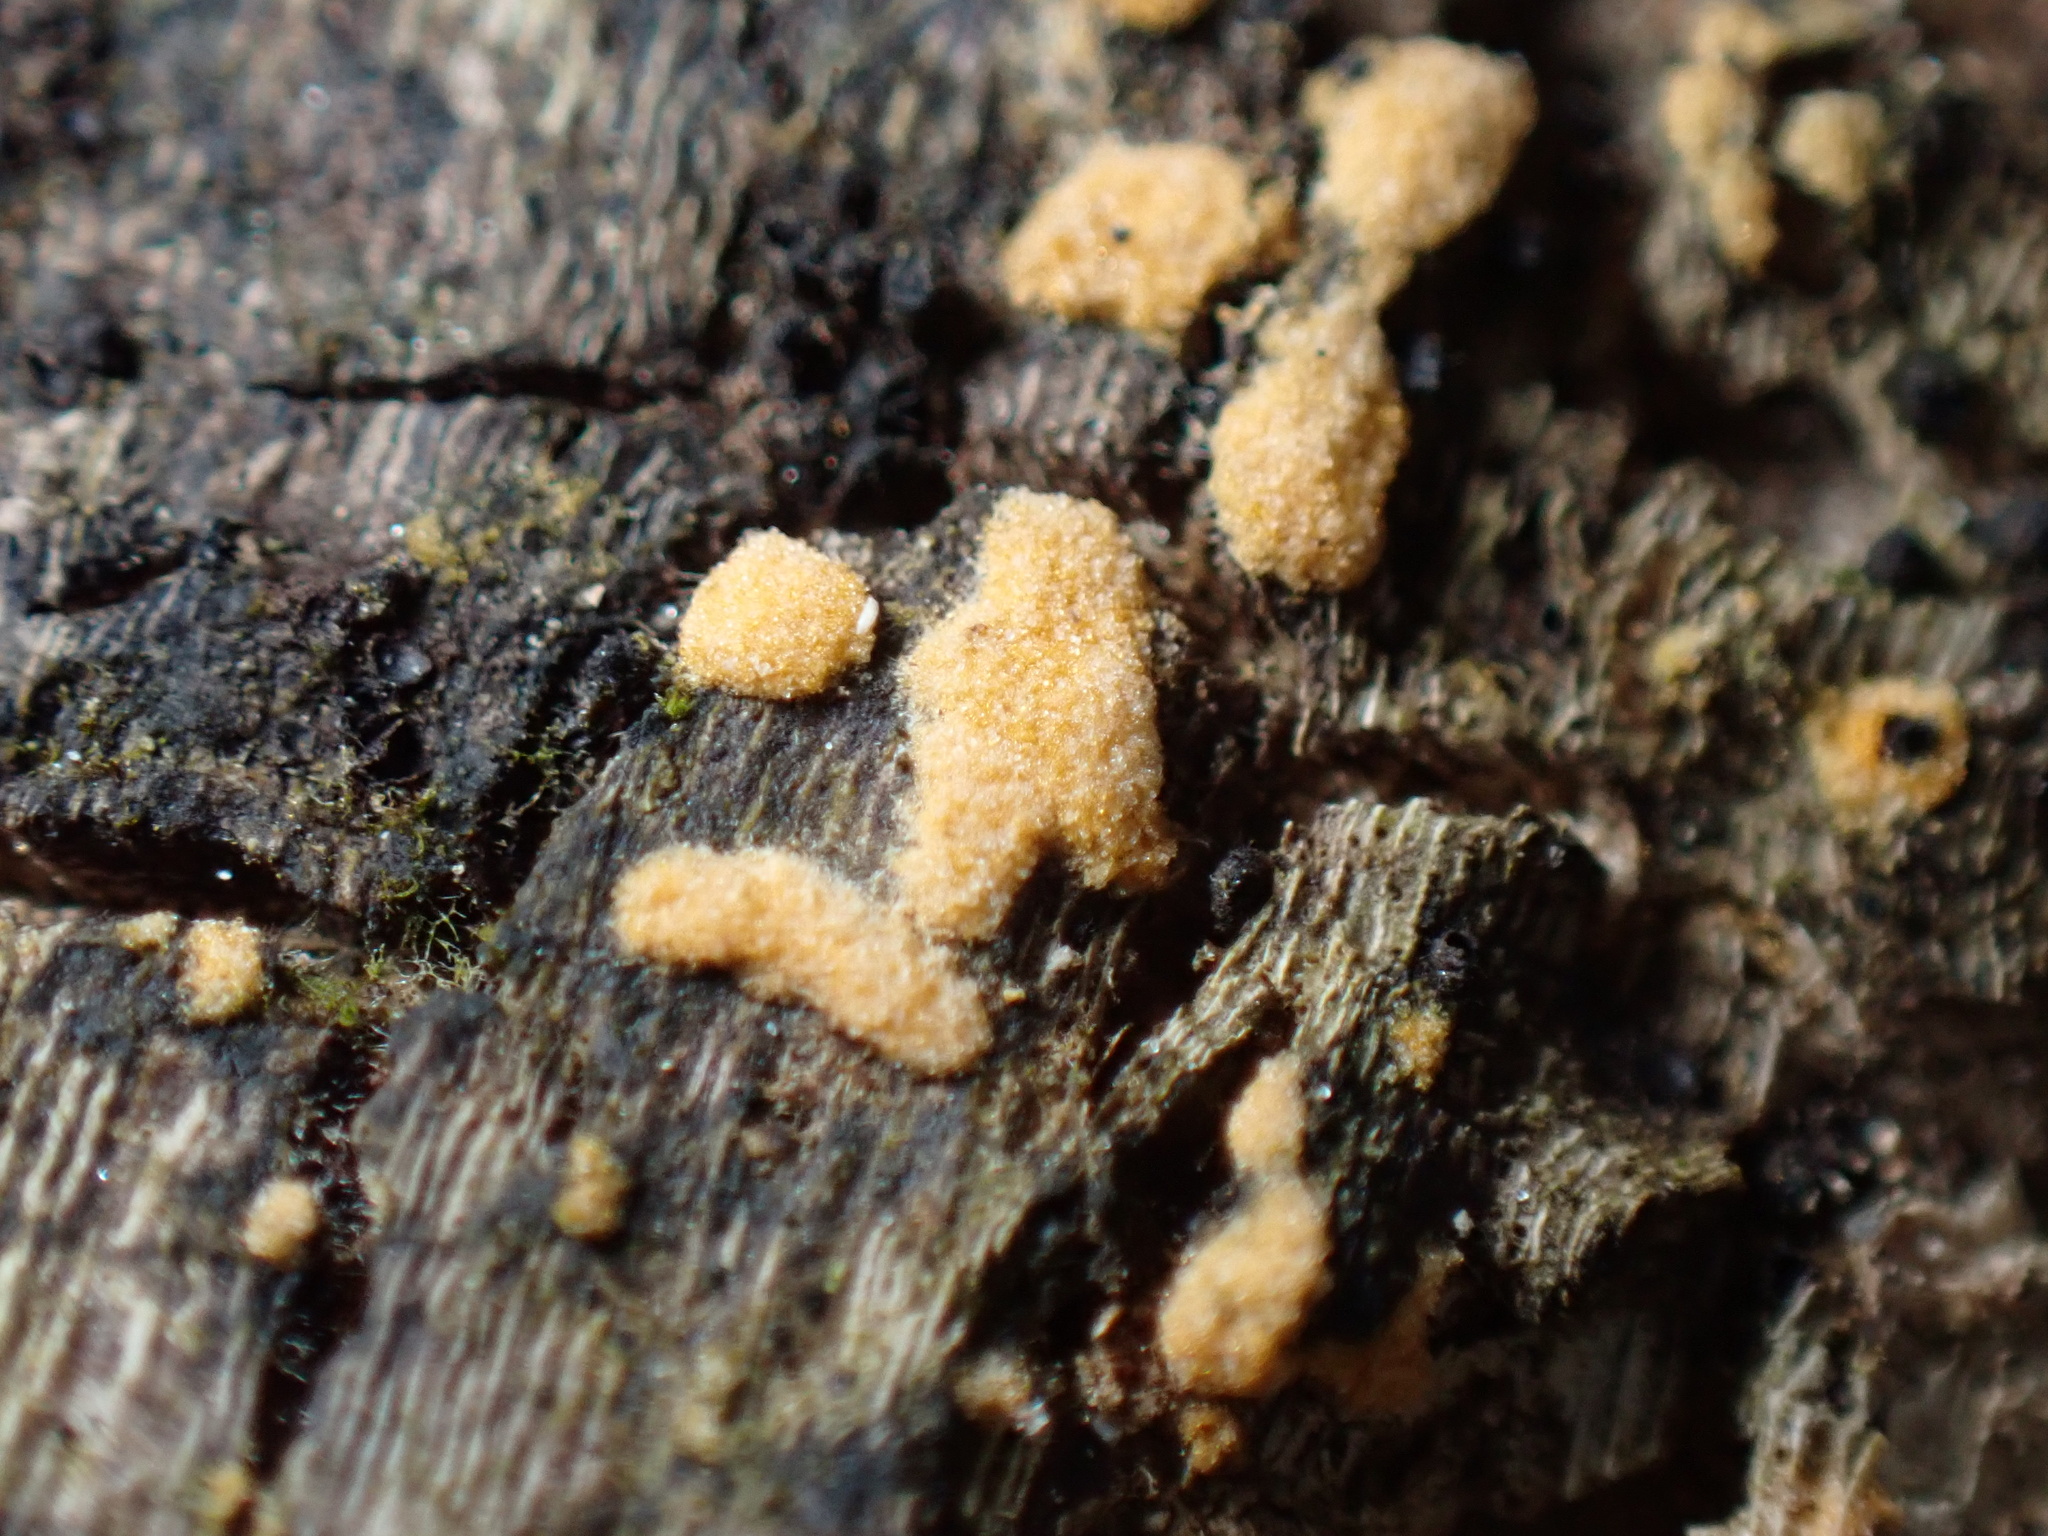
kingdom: Fungi
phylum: Ascomycota
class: Pezizomycetes
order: Pezizales
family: Pyronemataceae
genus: Sphaerosporium
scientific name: Sphaerosporium lignatile
